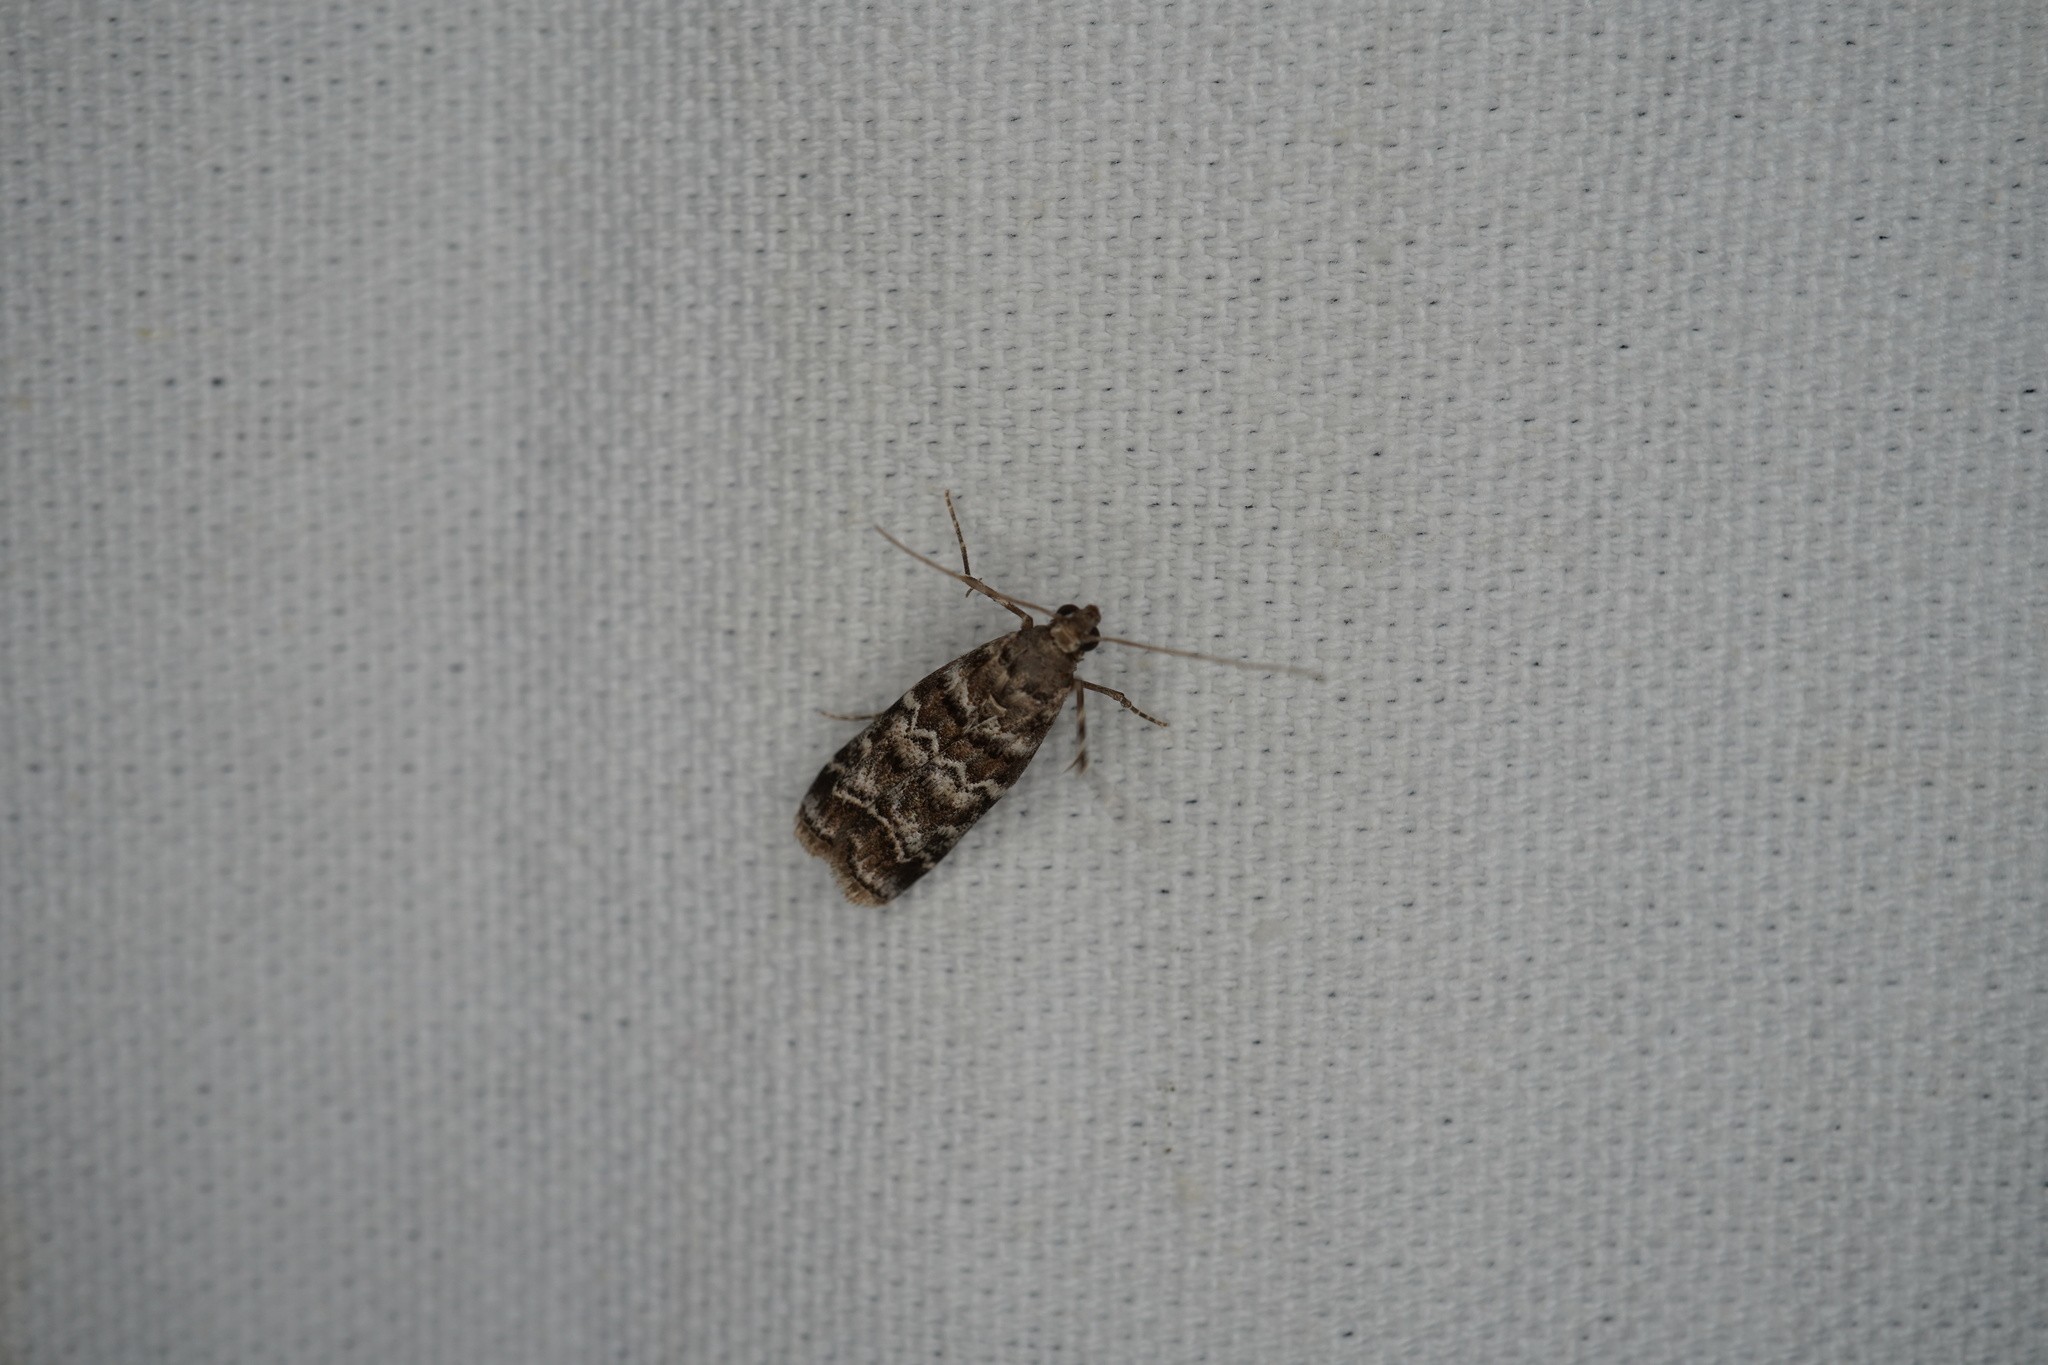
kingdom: Animalia
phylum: Arthropoda
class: Insecta
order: Lepidoptera
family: Pyralidae
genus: Dioryctria
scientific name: Dioryctria amatella
